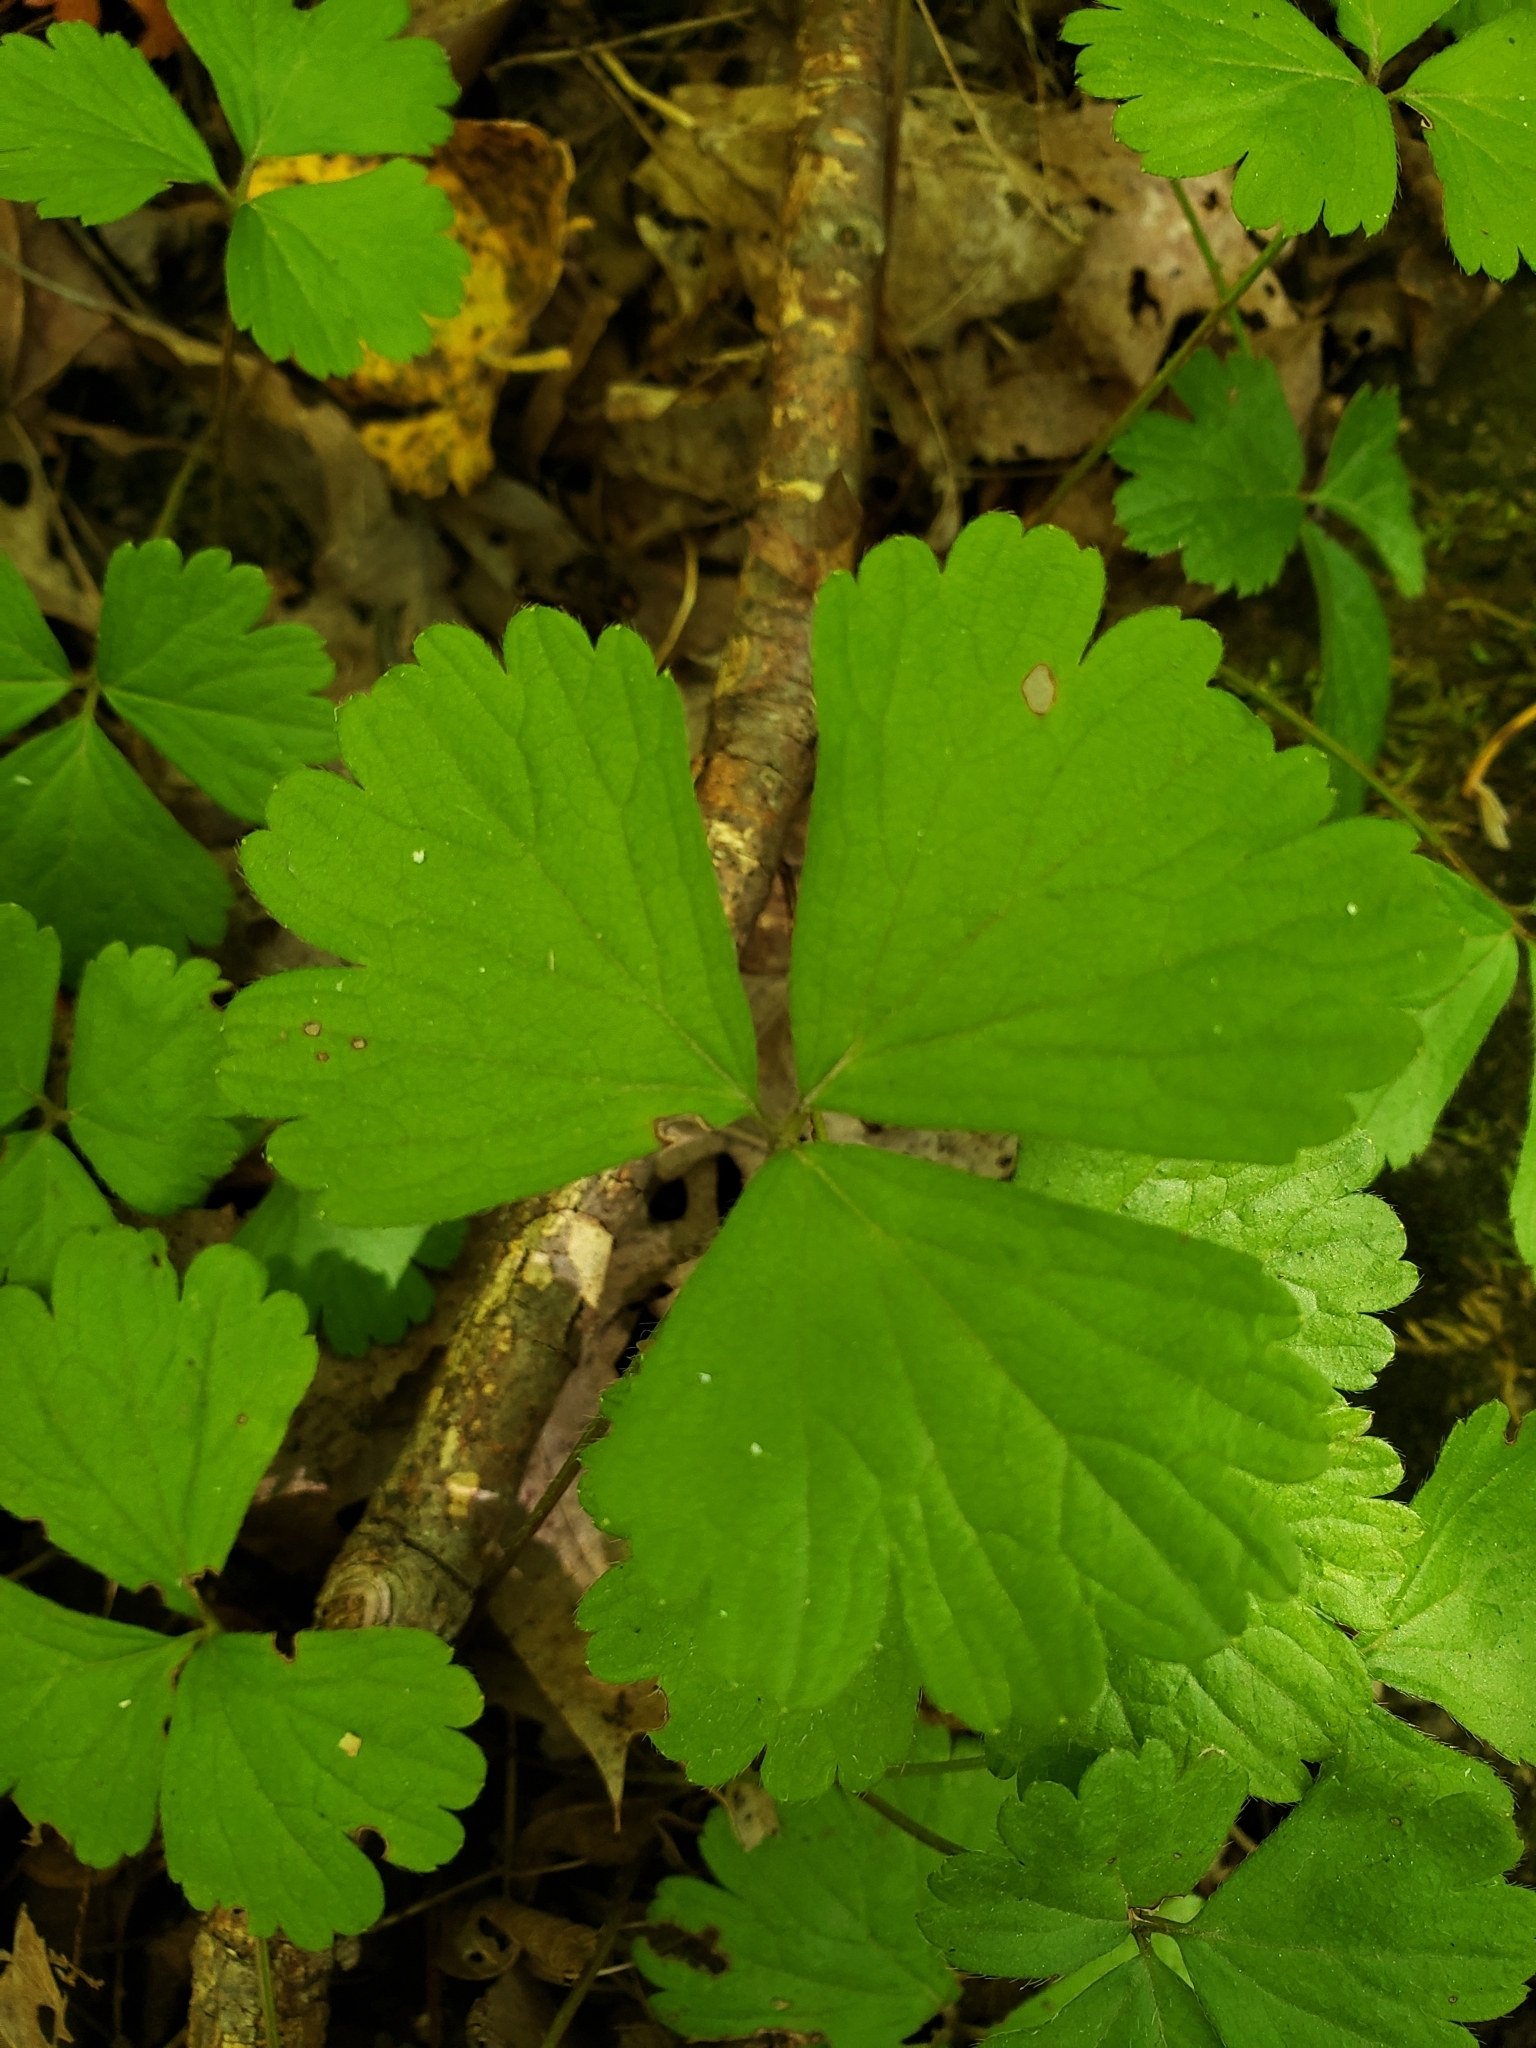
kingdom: Plantae
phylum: Tracheophyta
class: Magnoliopsida
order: Rosales
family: Rosaceae
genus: Geum
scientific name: Geum fragarioides
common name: Appalachian barren strawberry
